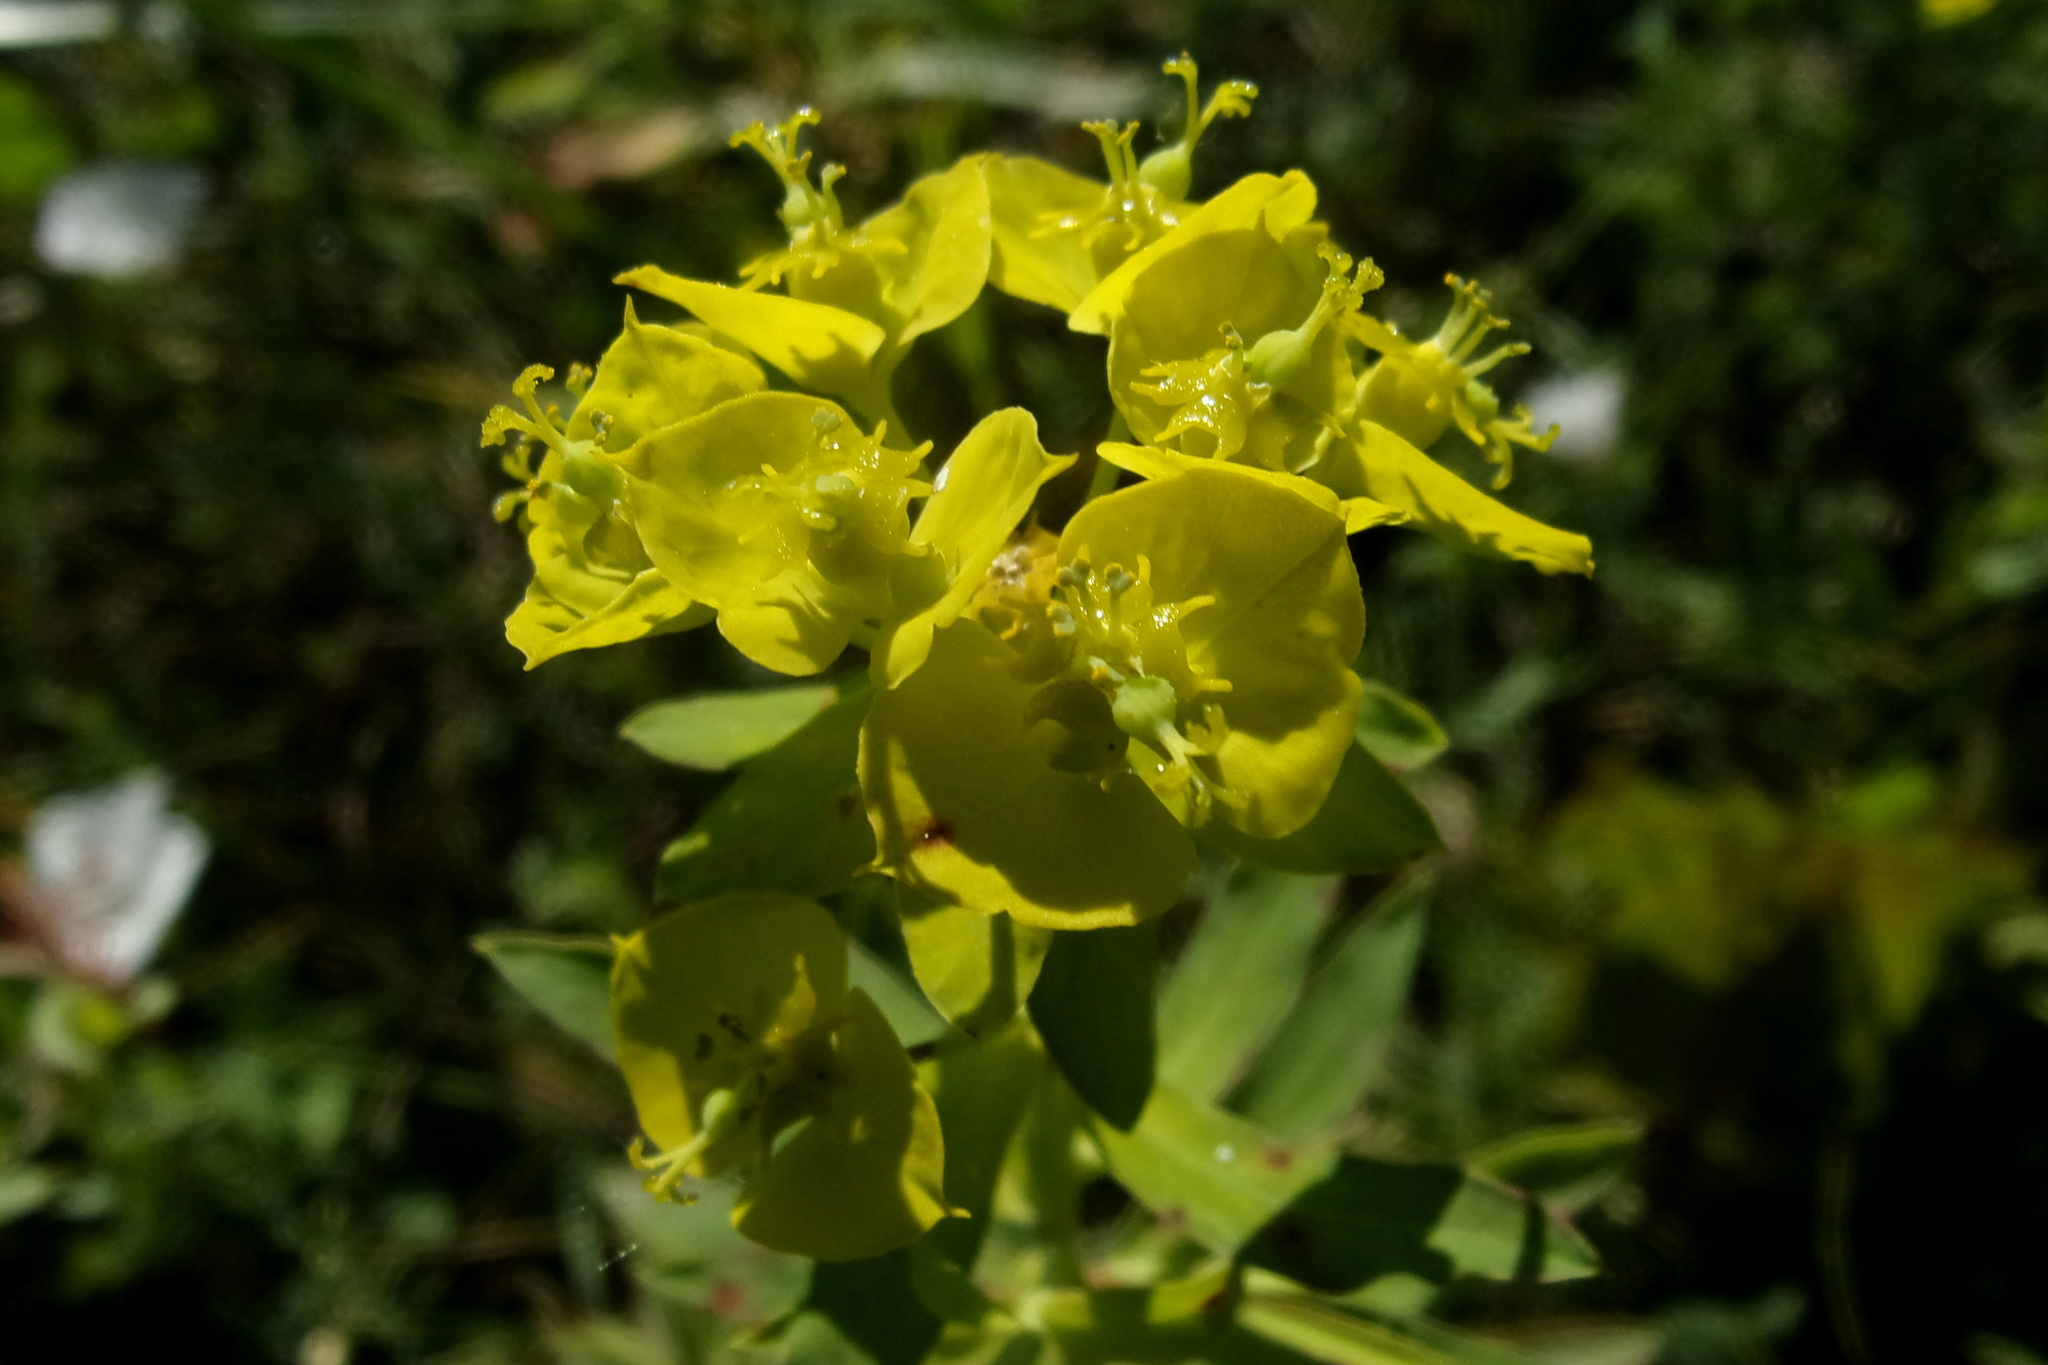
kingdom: Plantae
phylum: Tracheophyta
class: Magnoliopsida
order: Malpighiales
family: Euphorbiaceae
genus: Euphorbia
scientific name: Euphorbia virgata
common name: Leafy spurge
